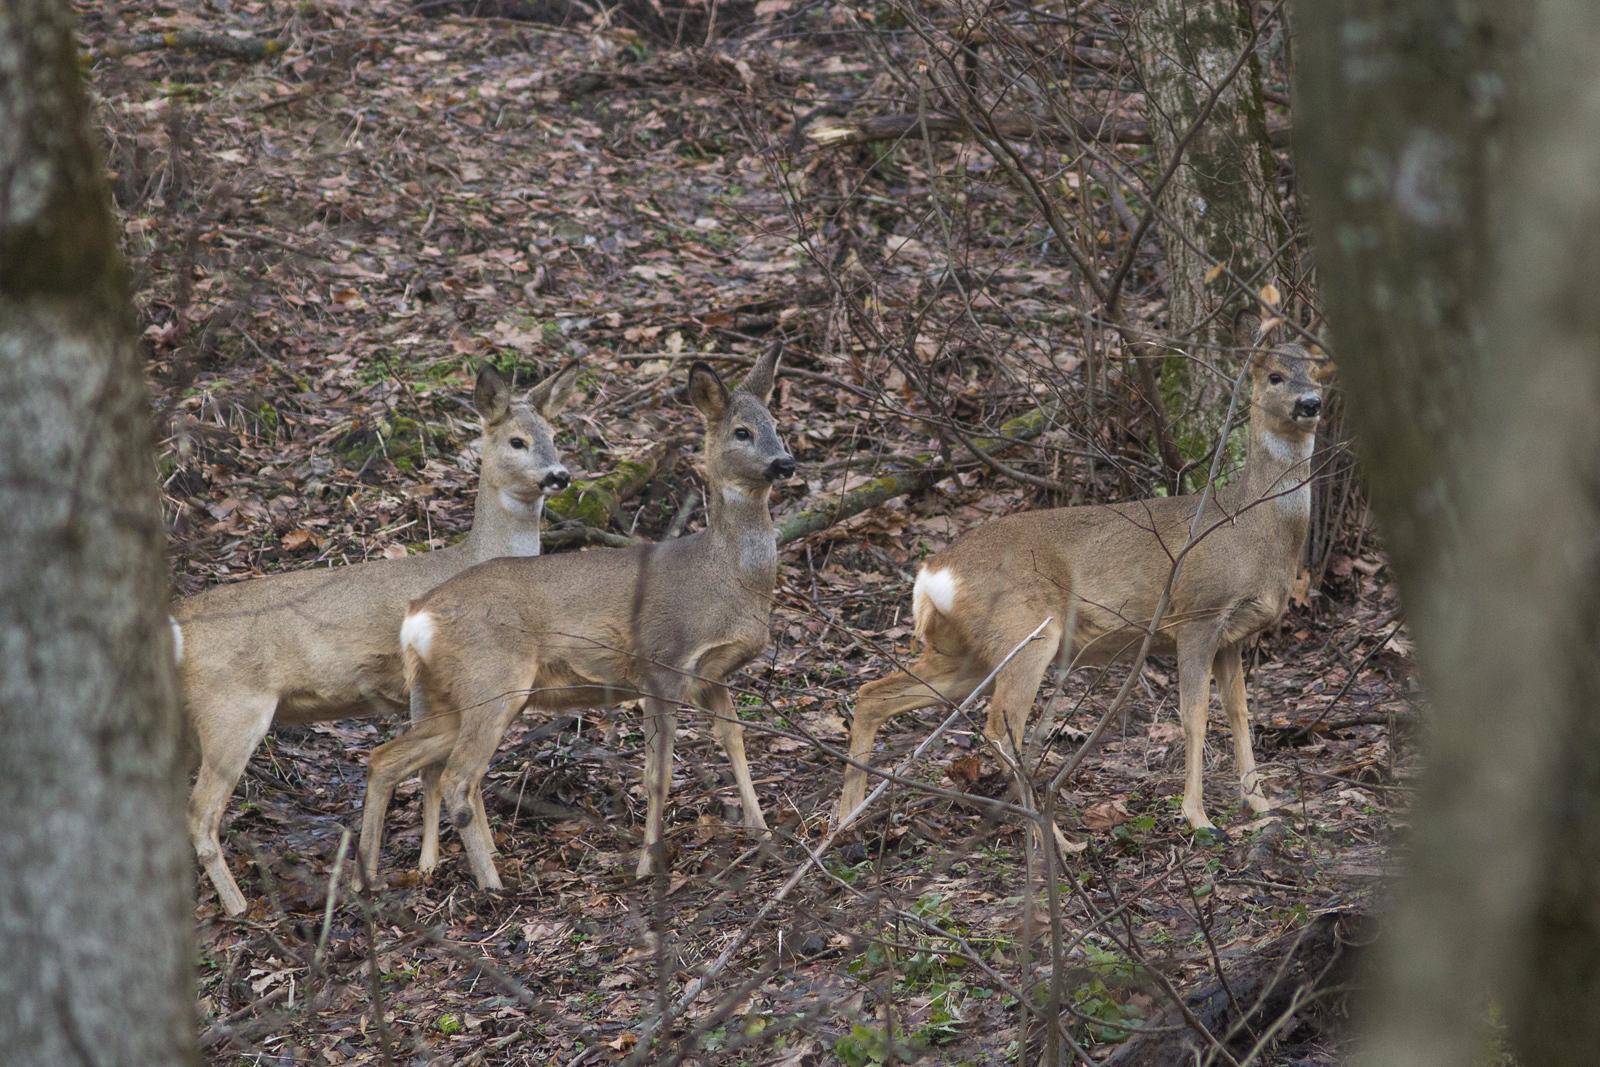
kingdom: Animalia
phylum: Chordata
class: Mammalia
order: Artiodactyla
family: Cervidae
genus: Capreolus
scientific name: Capreolus capreolus
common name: Western roe deer
